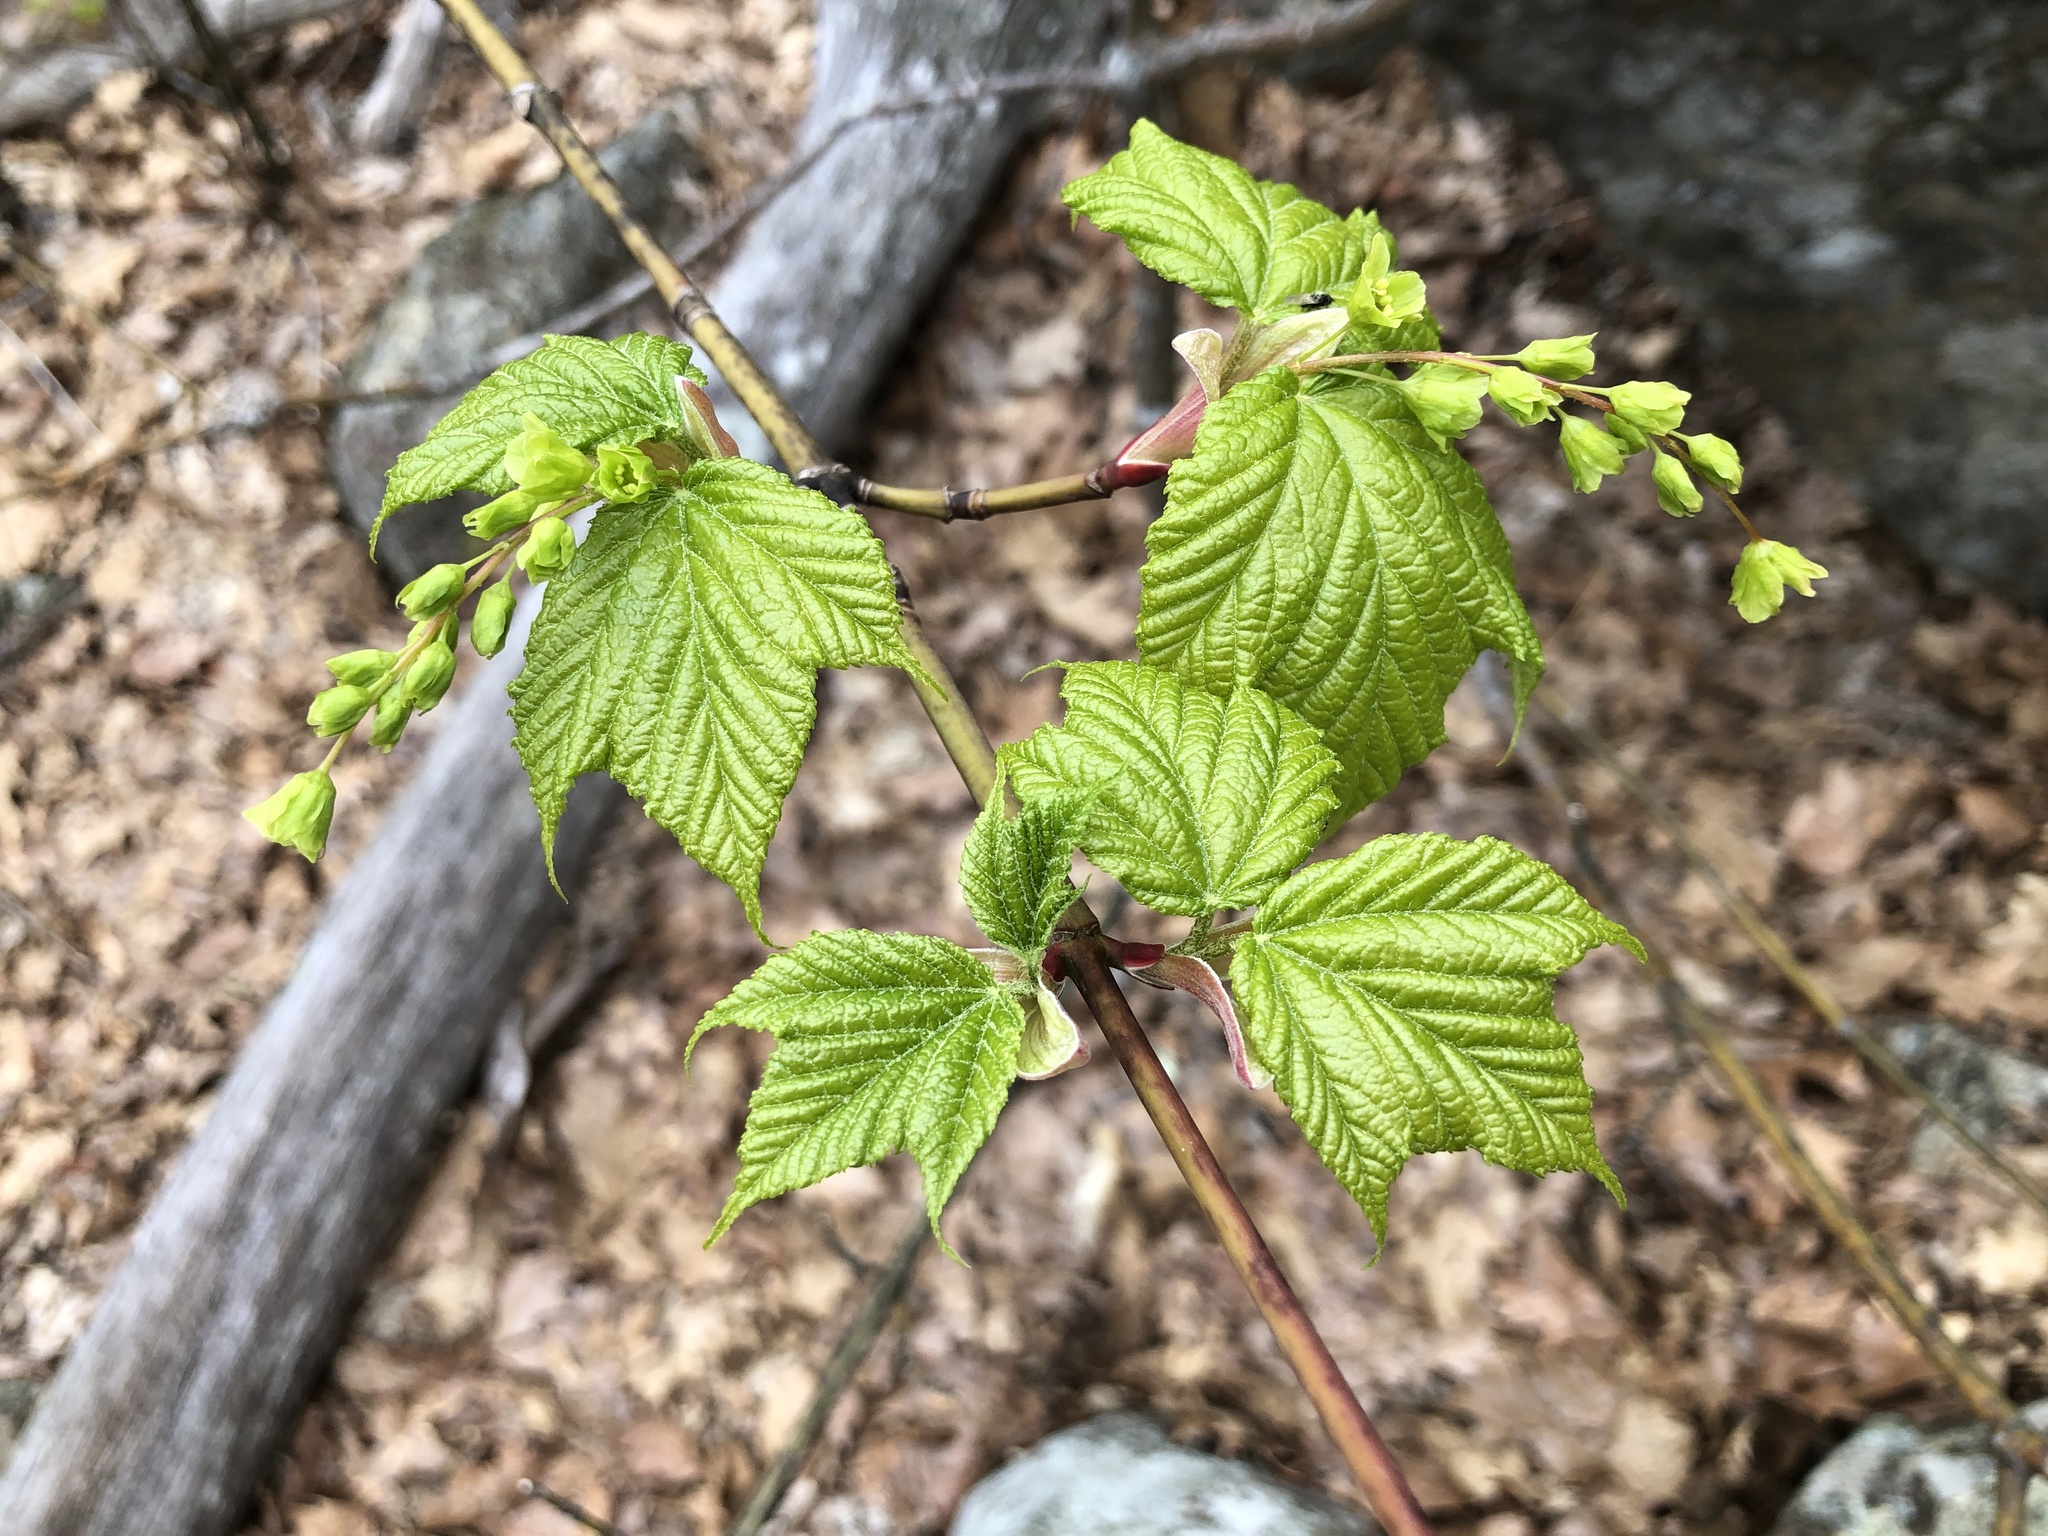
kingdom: Plantae
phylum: Tracheophyta
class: Magnoliopsida
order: Sapindales
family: Sapindaceae
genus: Acer
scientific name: Acer pensylvanicum
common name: Moosewood
